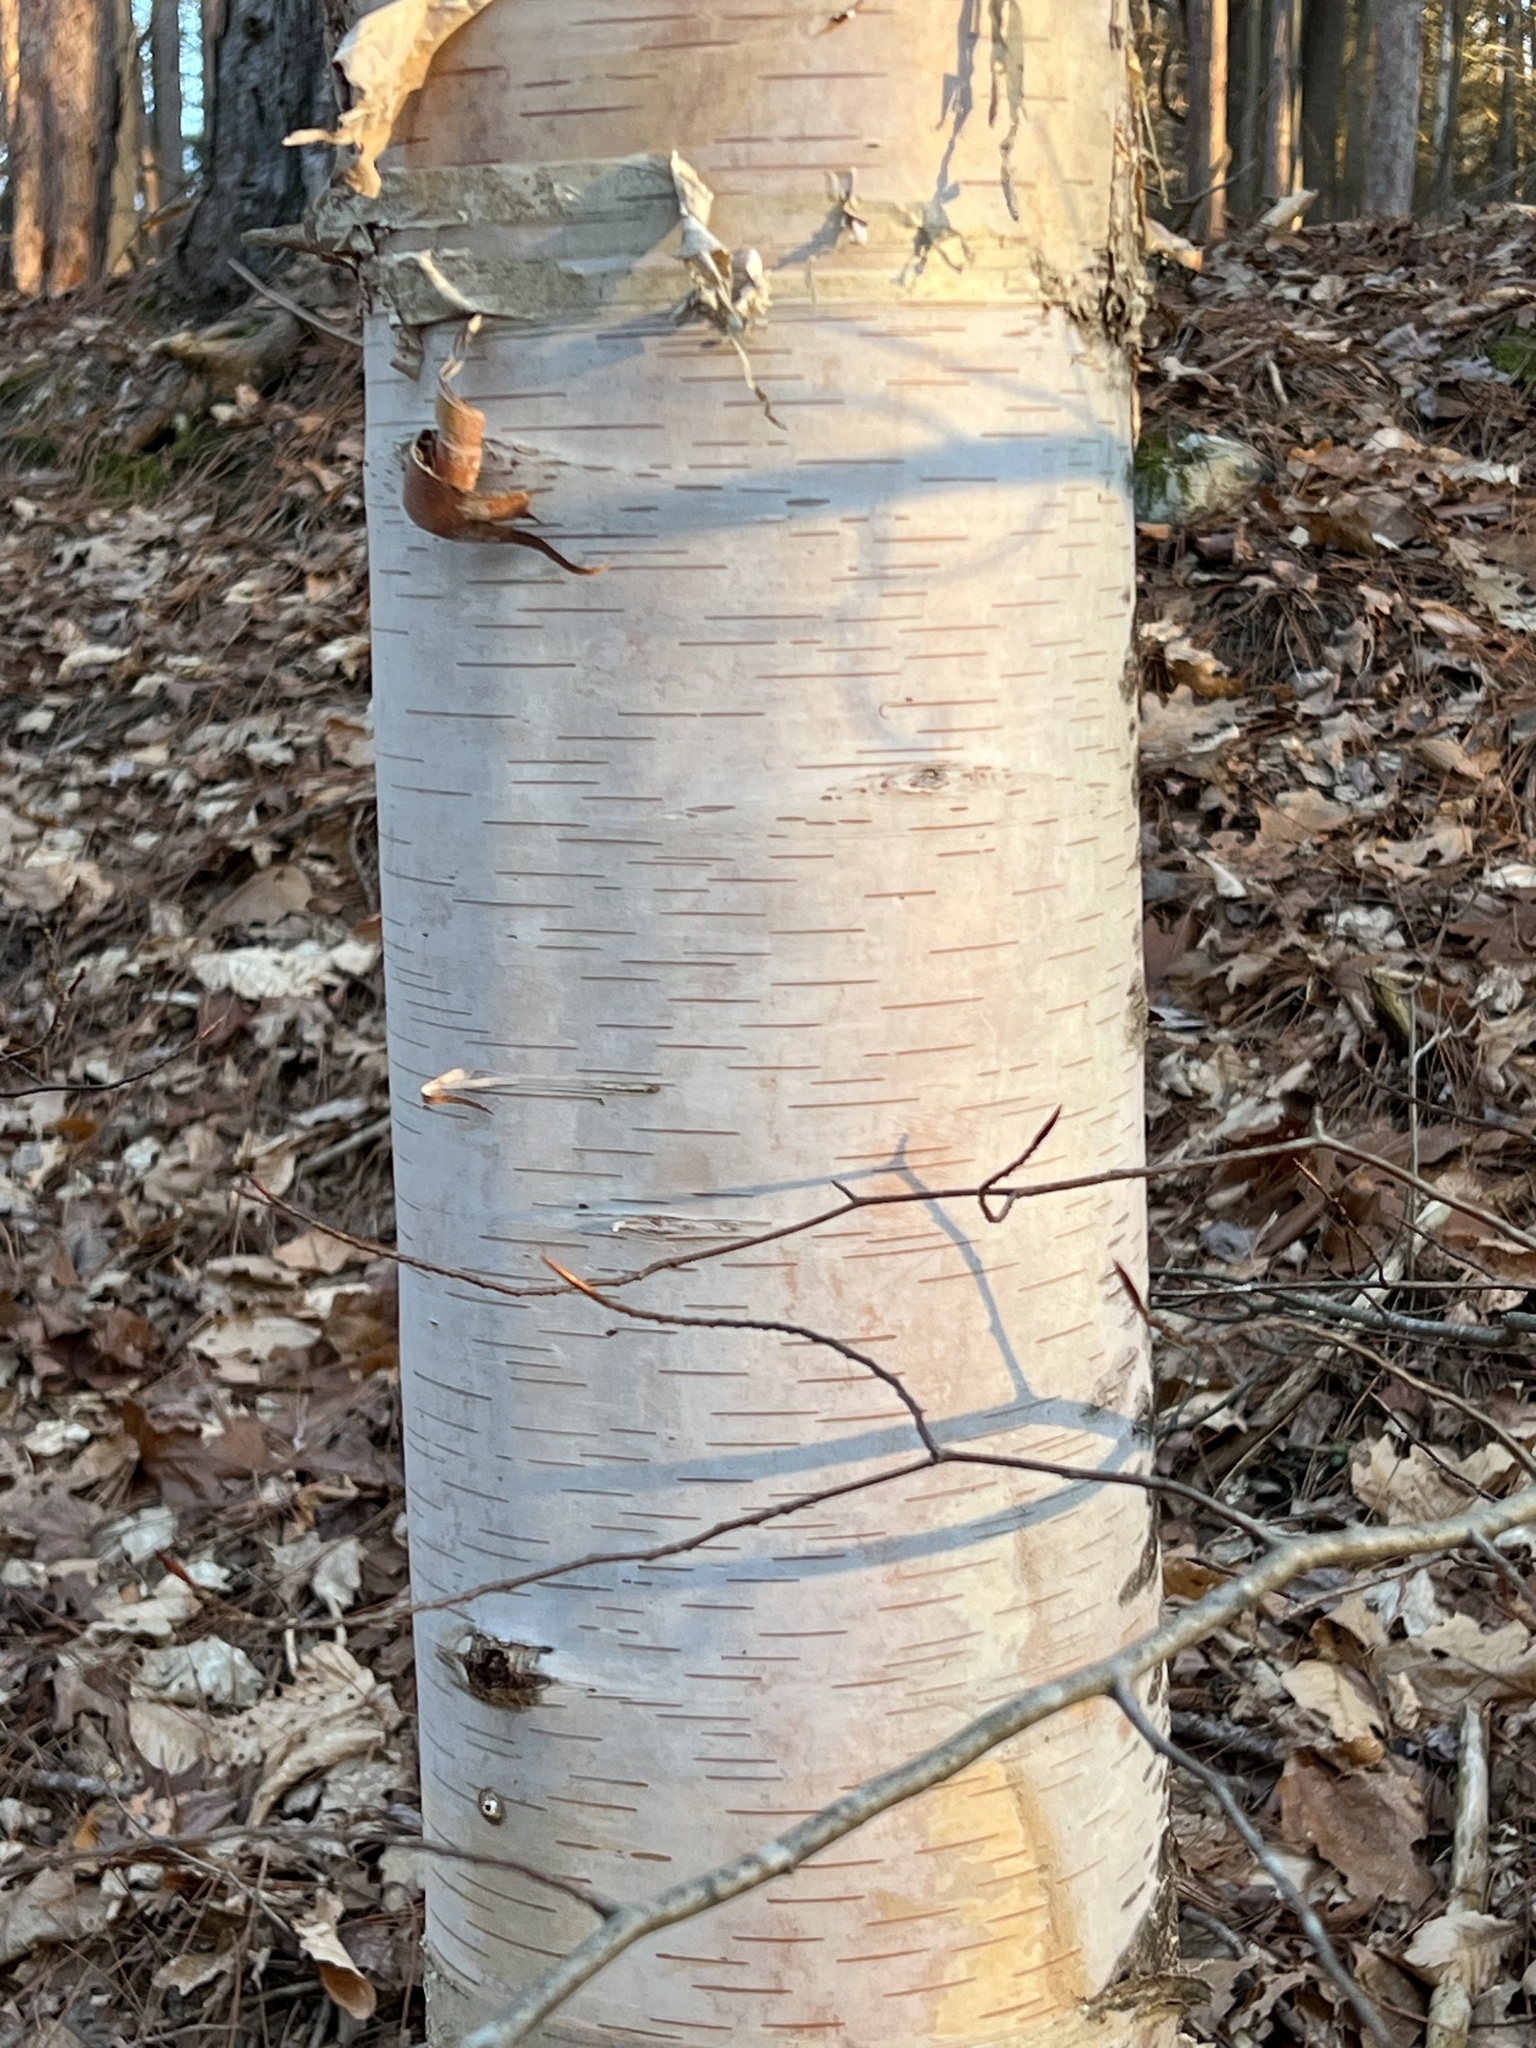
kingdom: Plantae
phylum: Tracheophyta
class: Magnoliopsida
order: Fagales
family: Betulaceae
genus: Betula
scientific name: Betula papyrifera
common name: Paper birch
